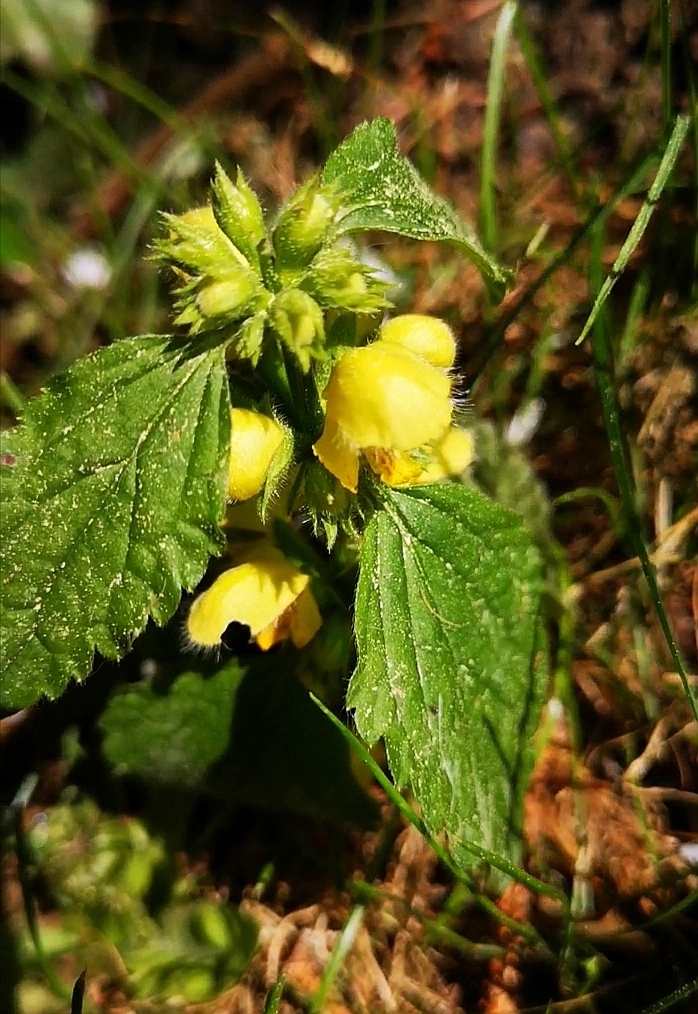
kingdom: Plantae
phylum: Tracheophyta
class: Magnoliopsida
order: Lamiales
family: Lamiaceae
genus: Lamium
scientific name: Lamium galeobdolon
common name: Yellow archangel
